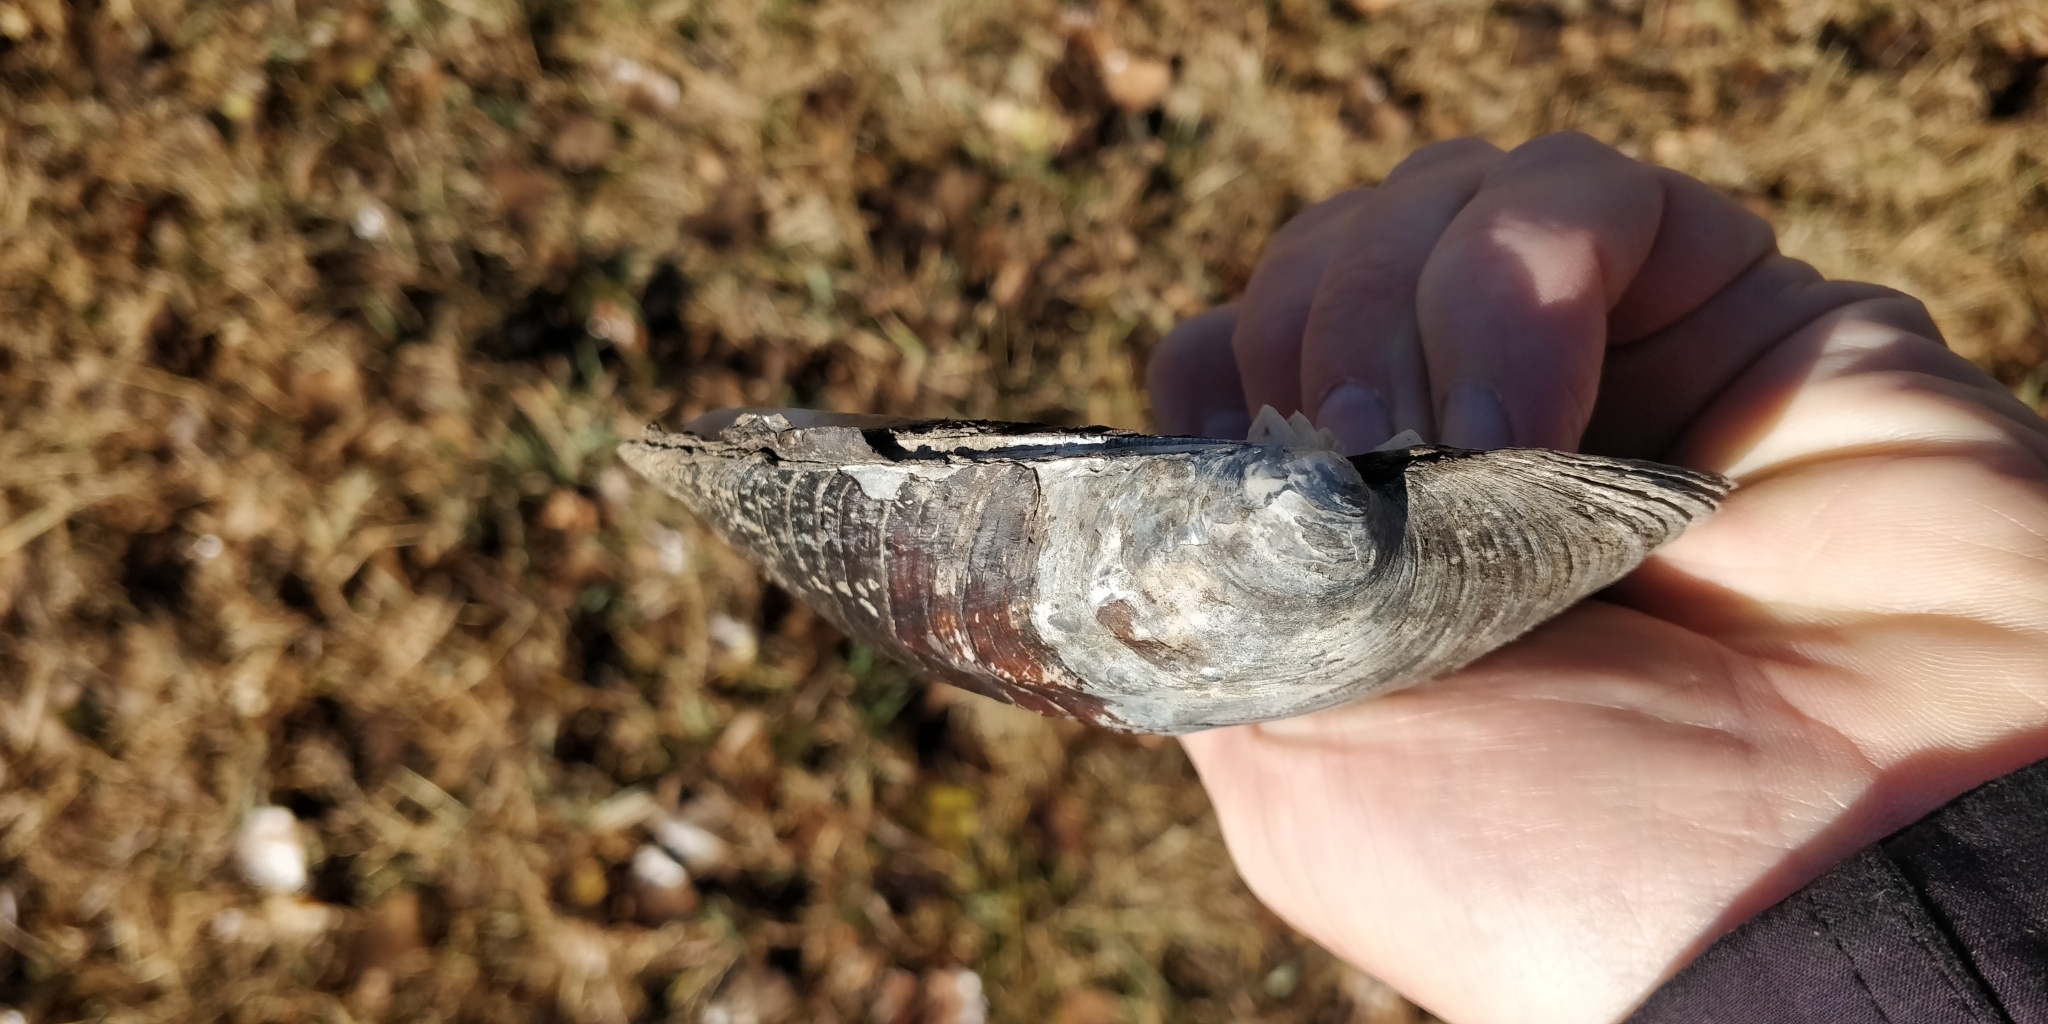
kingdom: Animalia
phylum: Mollusca
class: Bivalvia
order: Unionida
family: Unionidae
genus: Amblema
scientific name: Amblema plicata
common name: Threeridge
